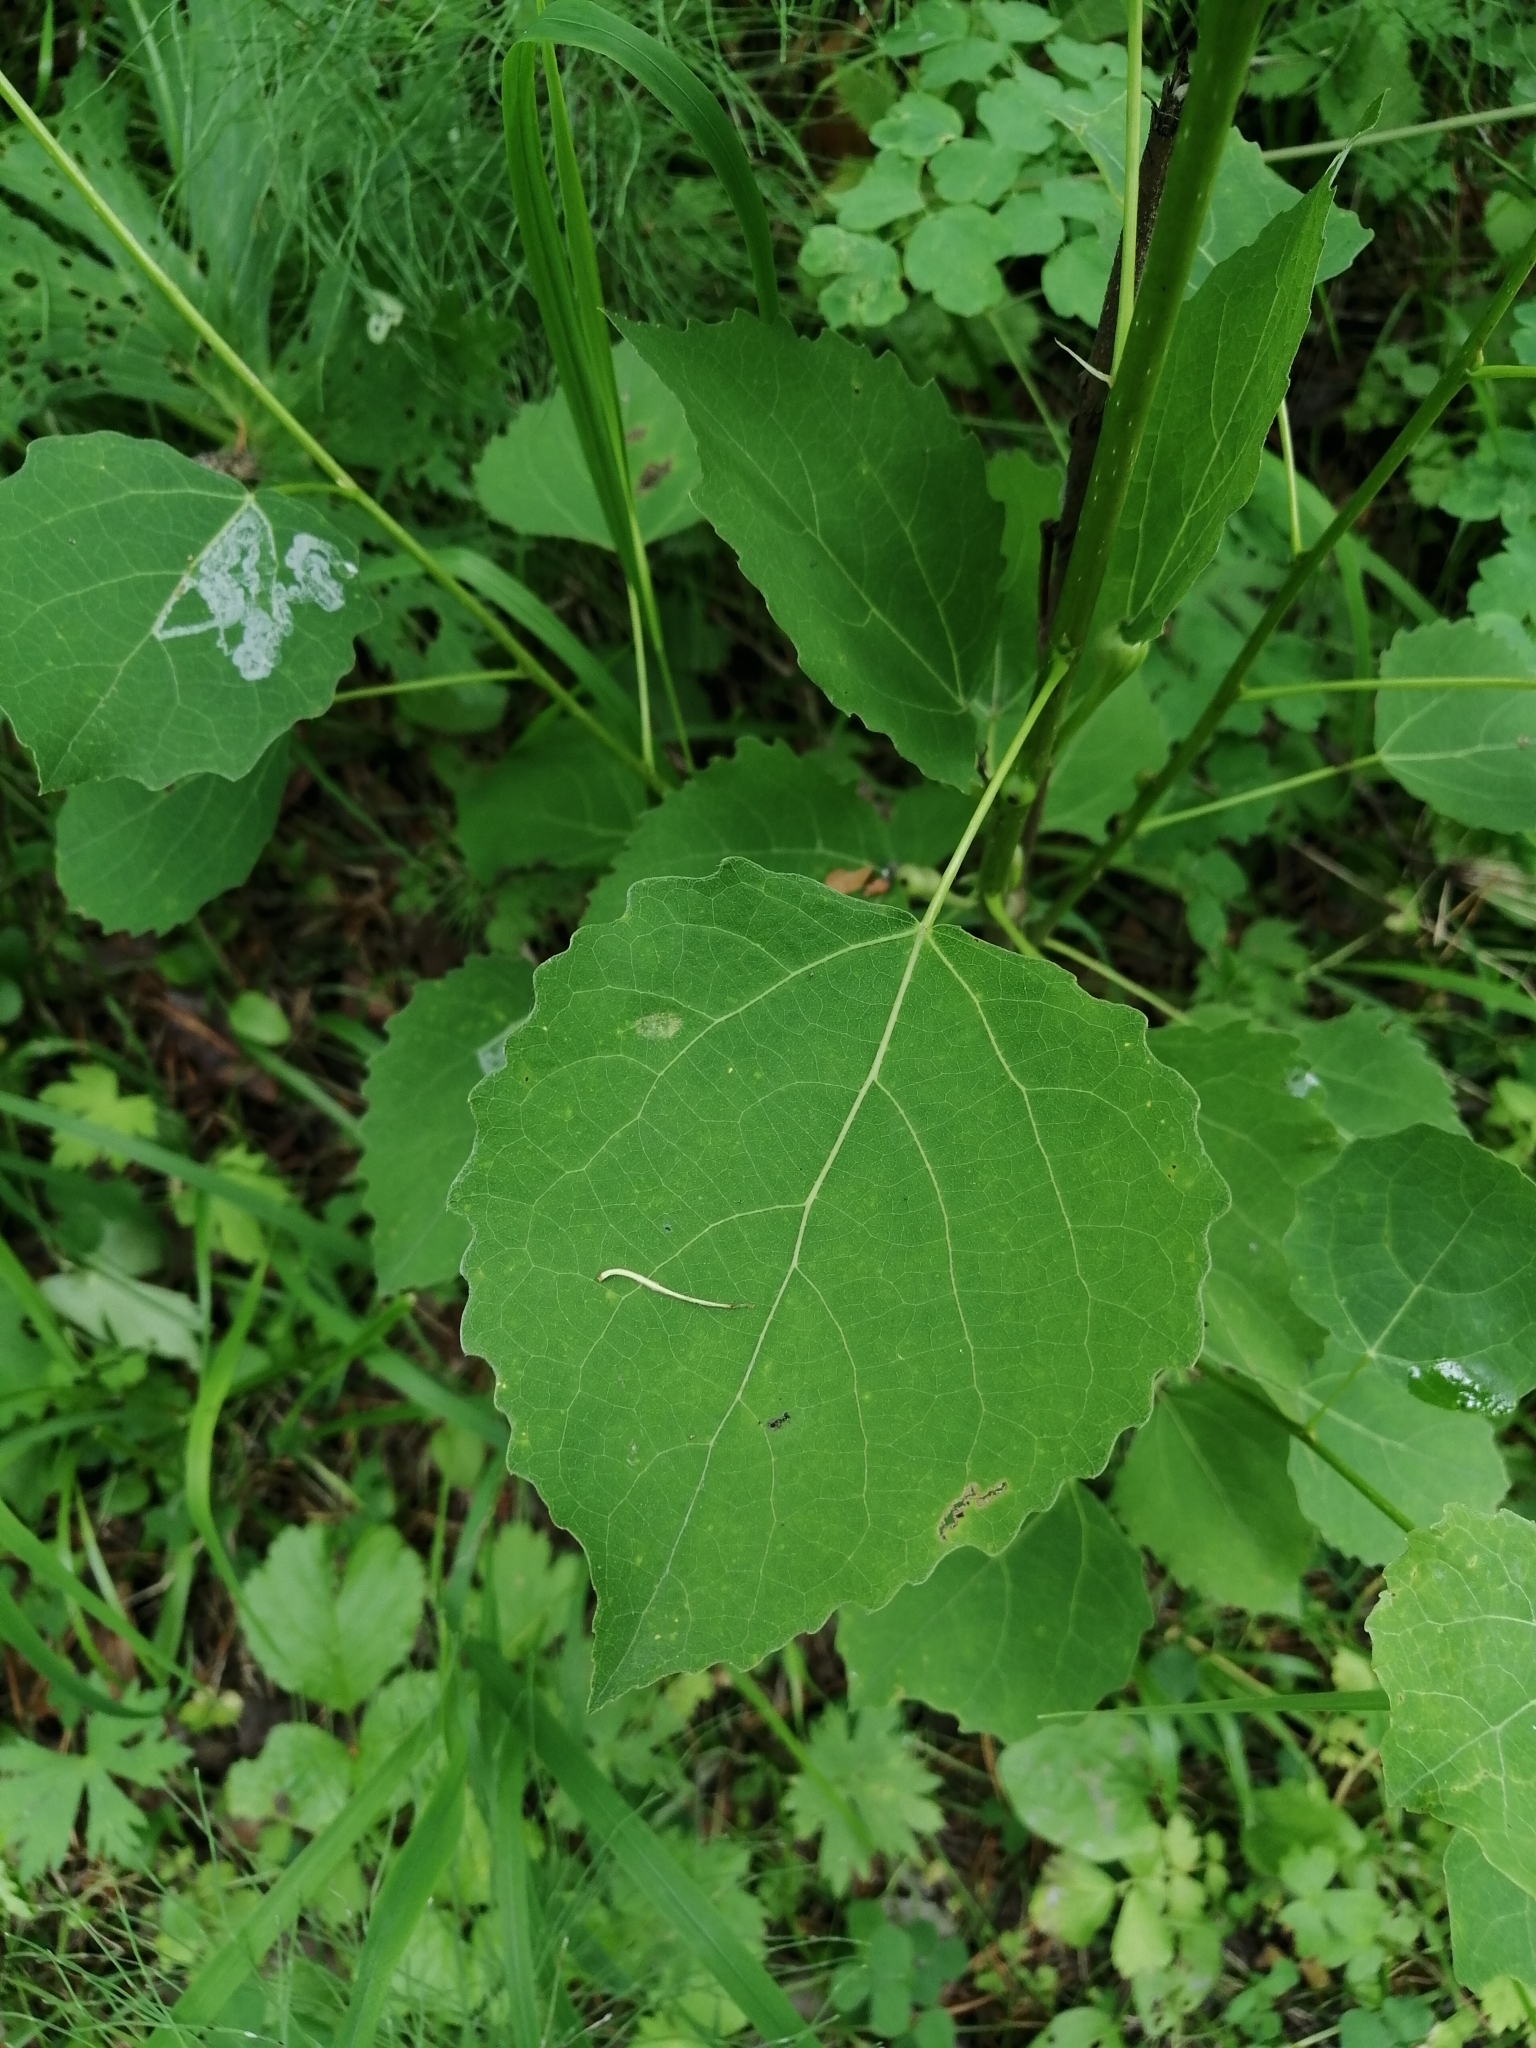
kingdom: Plantae
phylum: Tracheophyta
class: Magnoliopsida
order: Malpighiales
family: Salicaceae
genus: Populus
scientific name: Populus tremula
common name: European aspen
